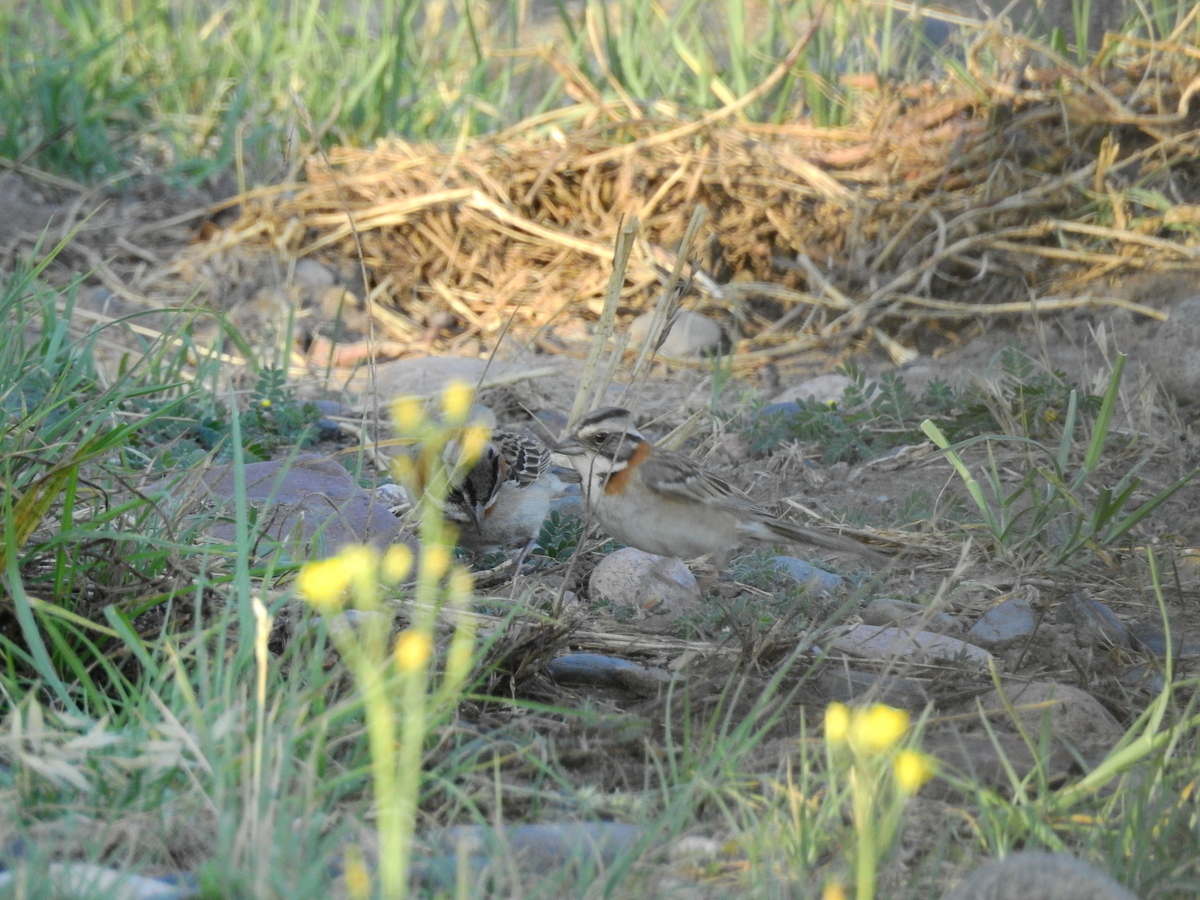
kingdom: Animalia
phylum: Chordata
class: Aves
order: Passeriformes
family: Passerellidae
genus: Zonotrichia
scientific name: Zonotrichia capensis
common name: Rufous-collared sparrow
